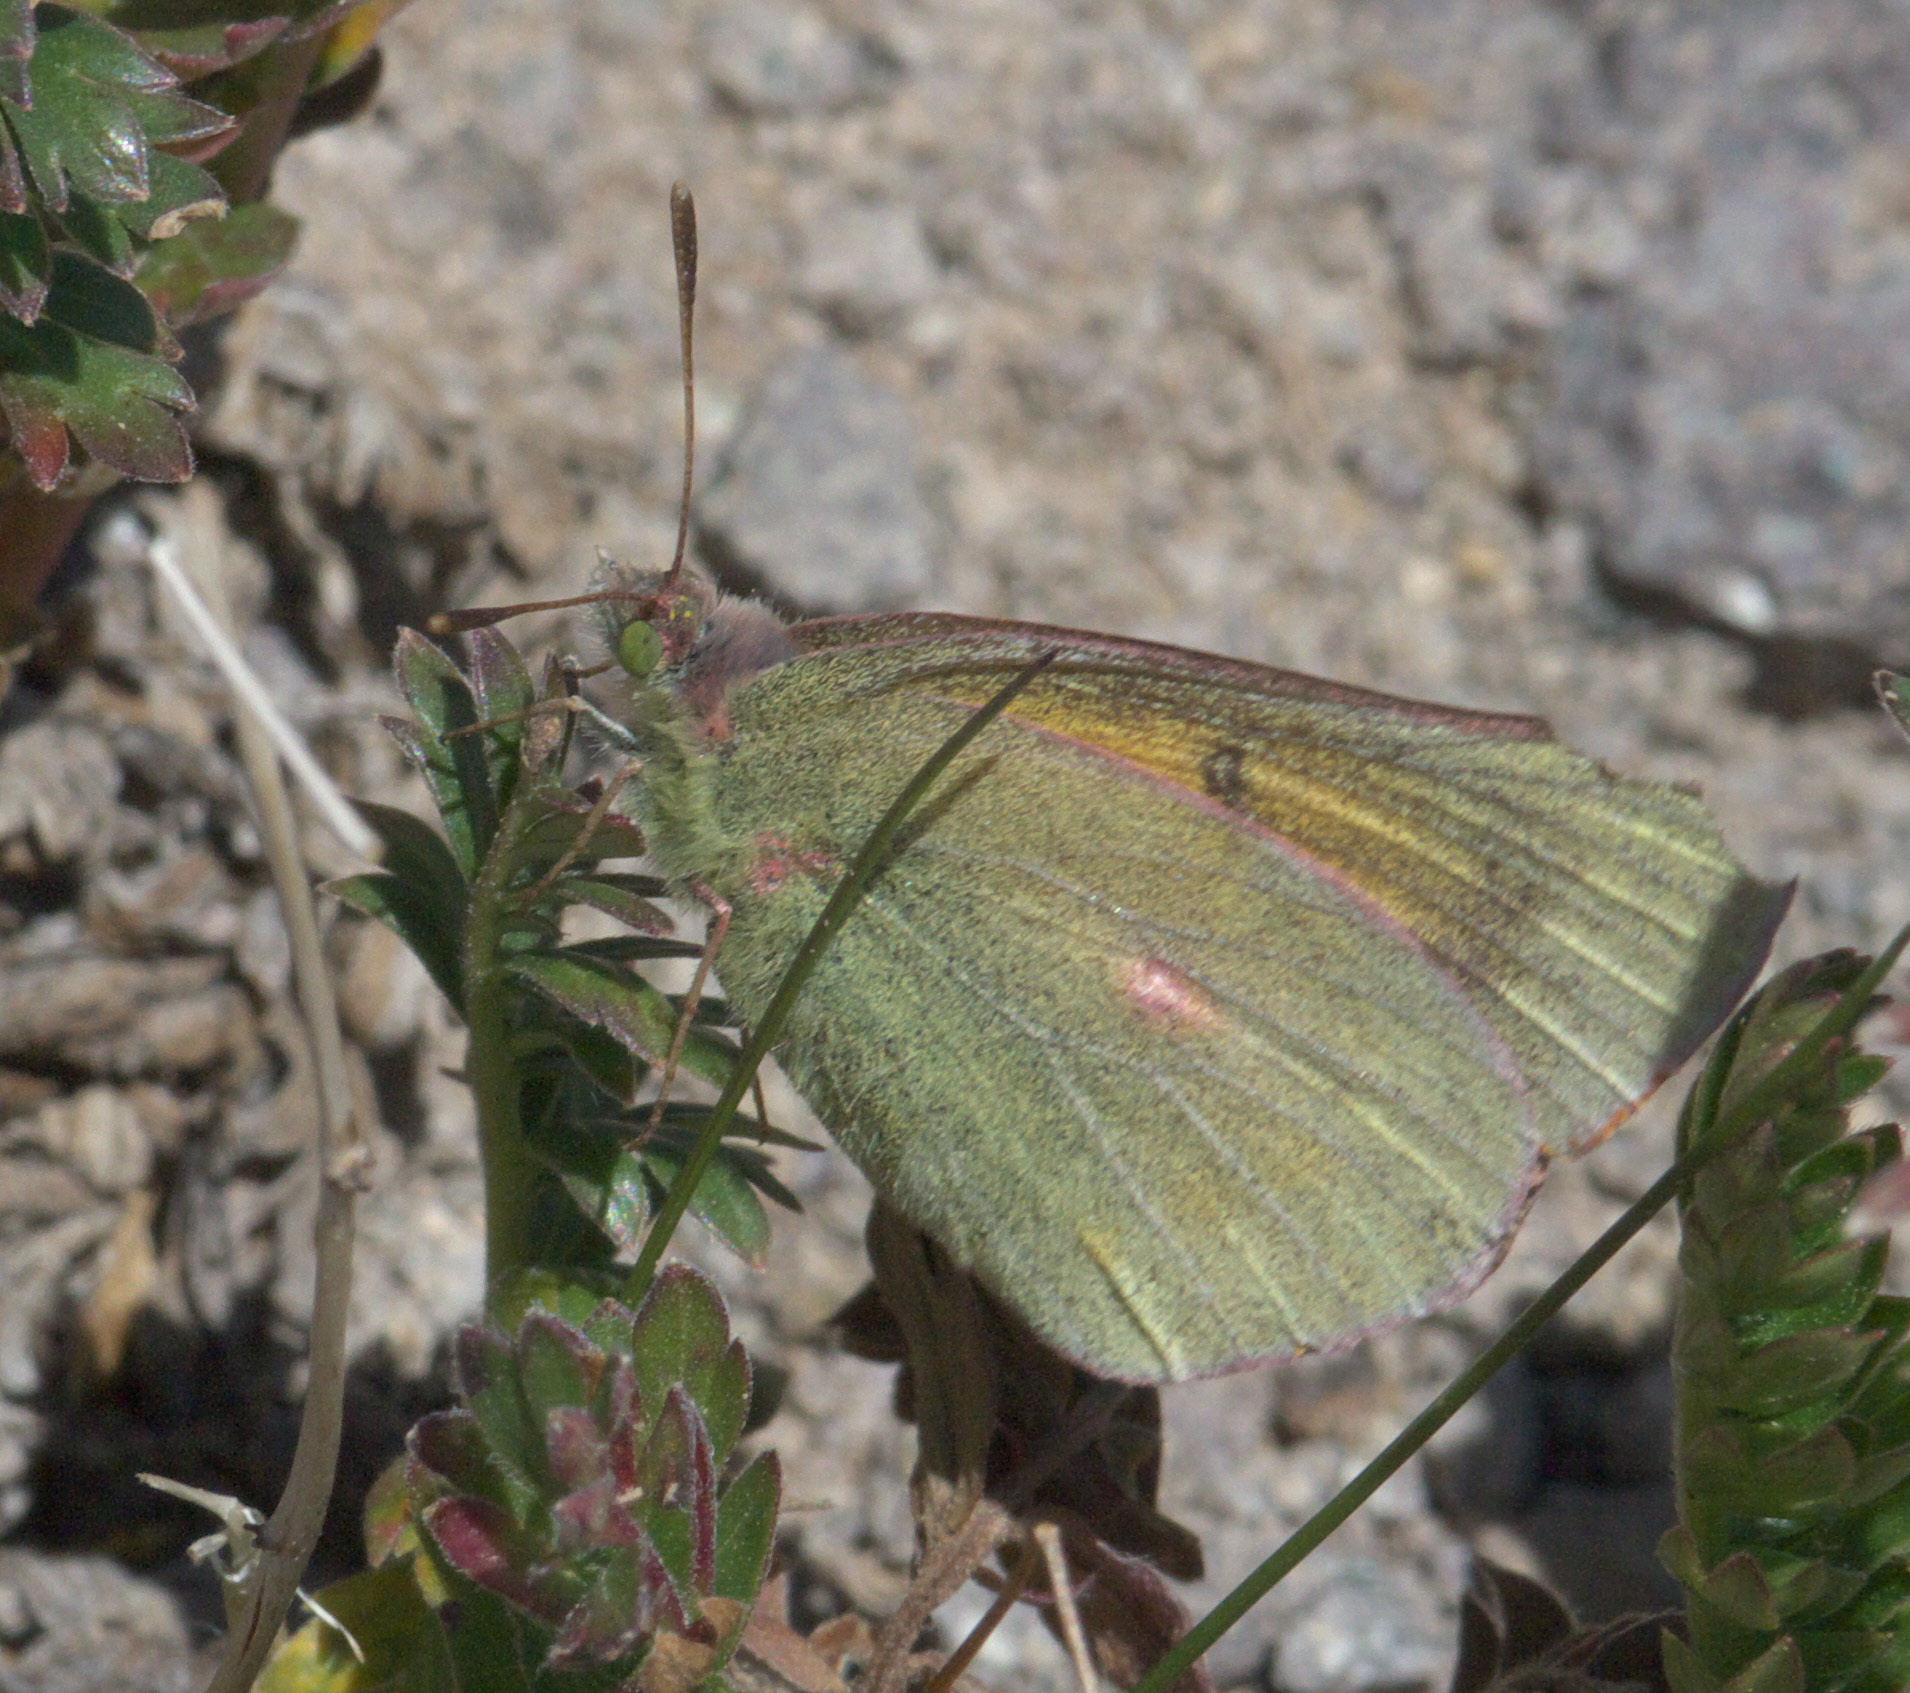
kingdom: Animalia
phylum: Arthropoda
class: Insecta
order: Lepidoptera
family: Pieridae
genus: Colias
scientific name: Colias meadii
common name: Mead's sulphur
